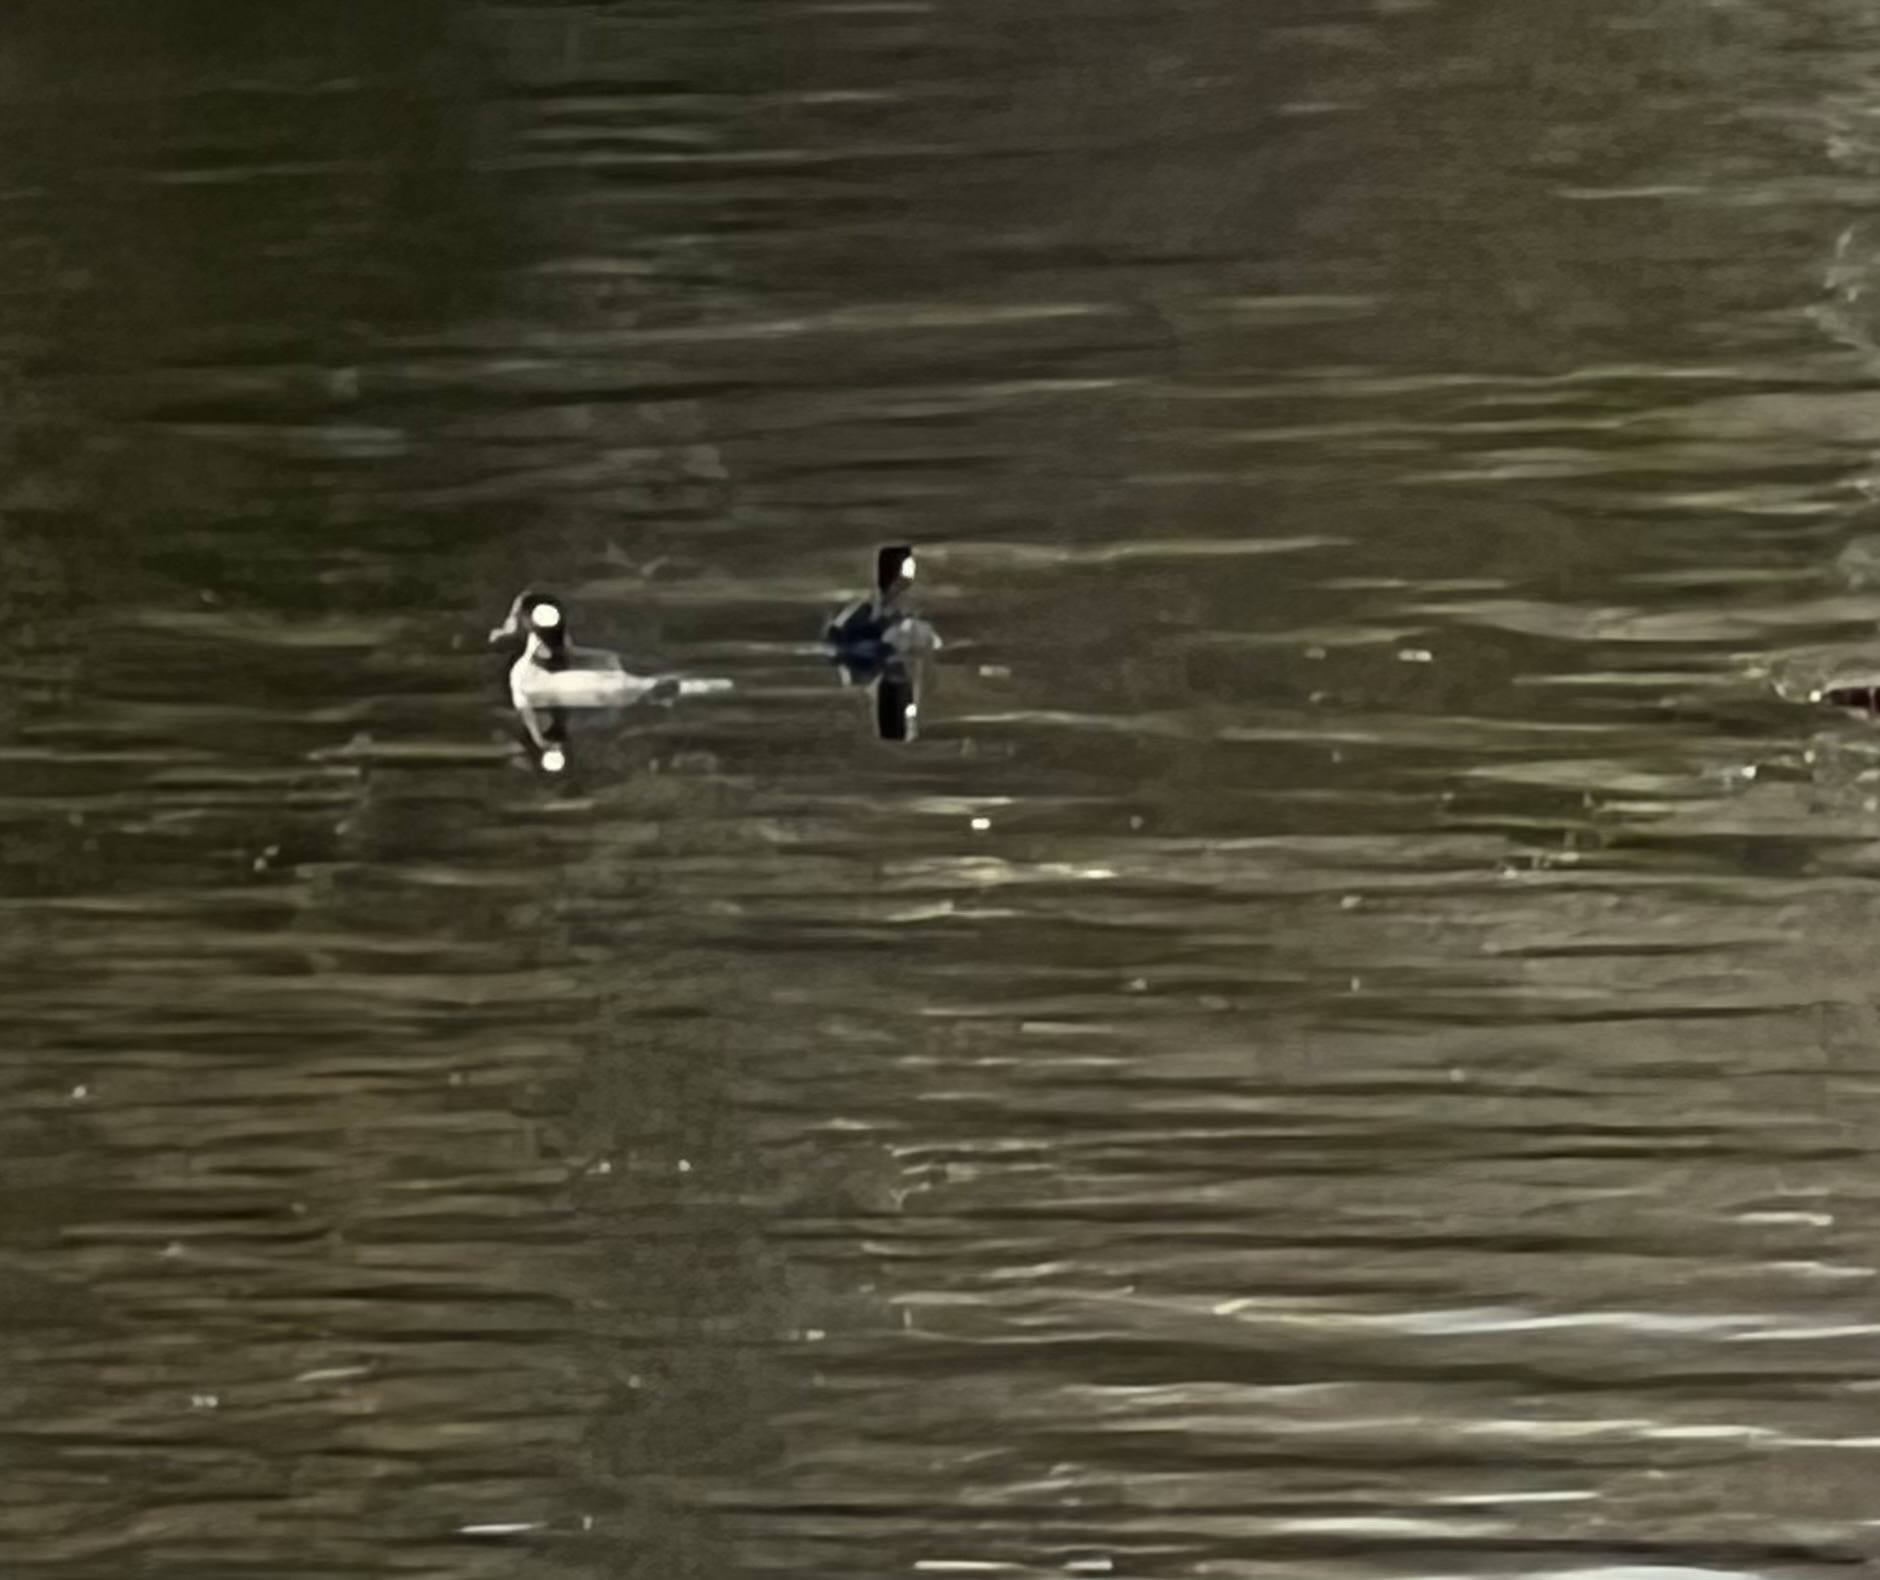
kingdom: Animalia
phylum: Chordata
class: Aves
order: Anseriformes
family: Anatidae
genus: Bucephala
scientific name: Bucephala albeola
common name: Bufflehead
